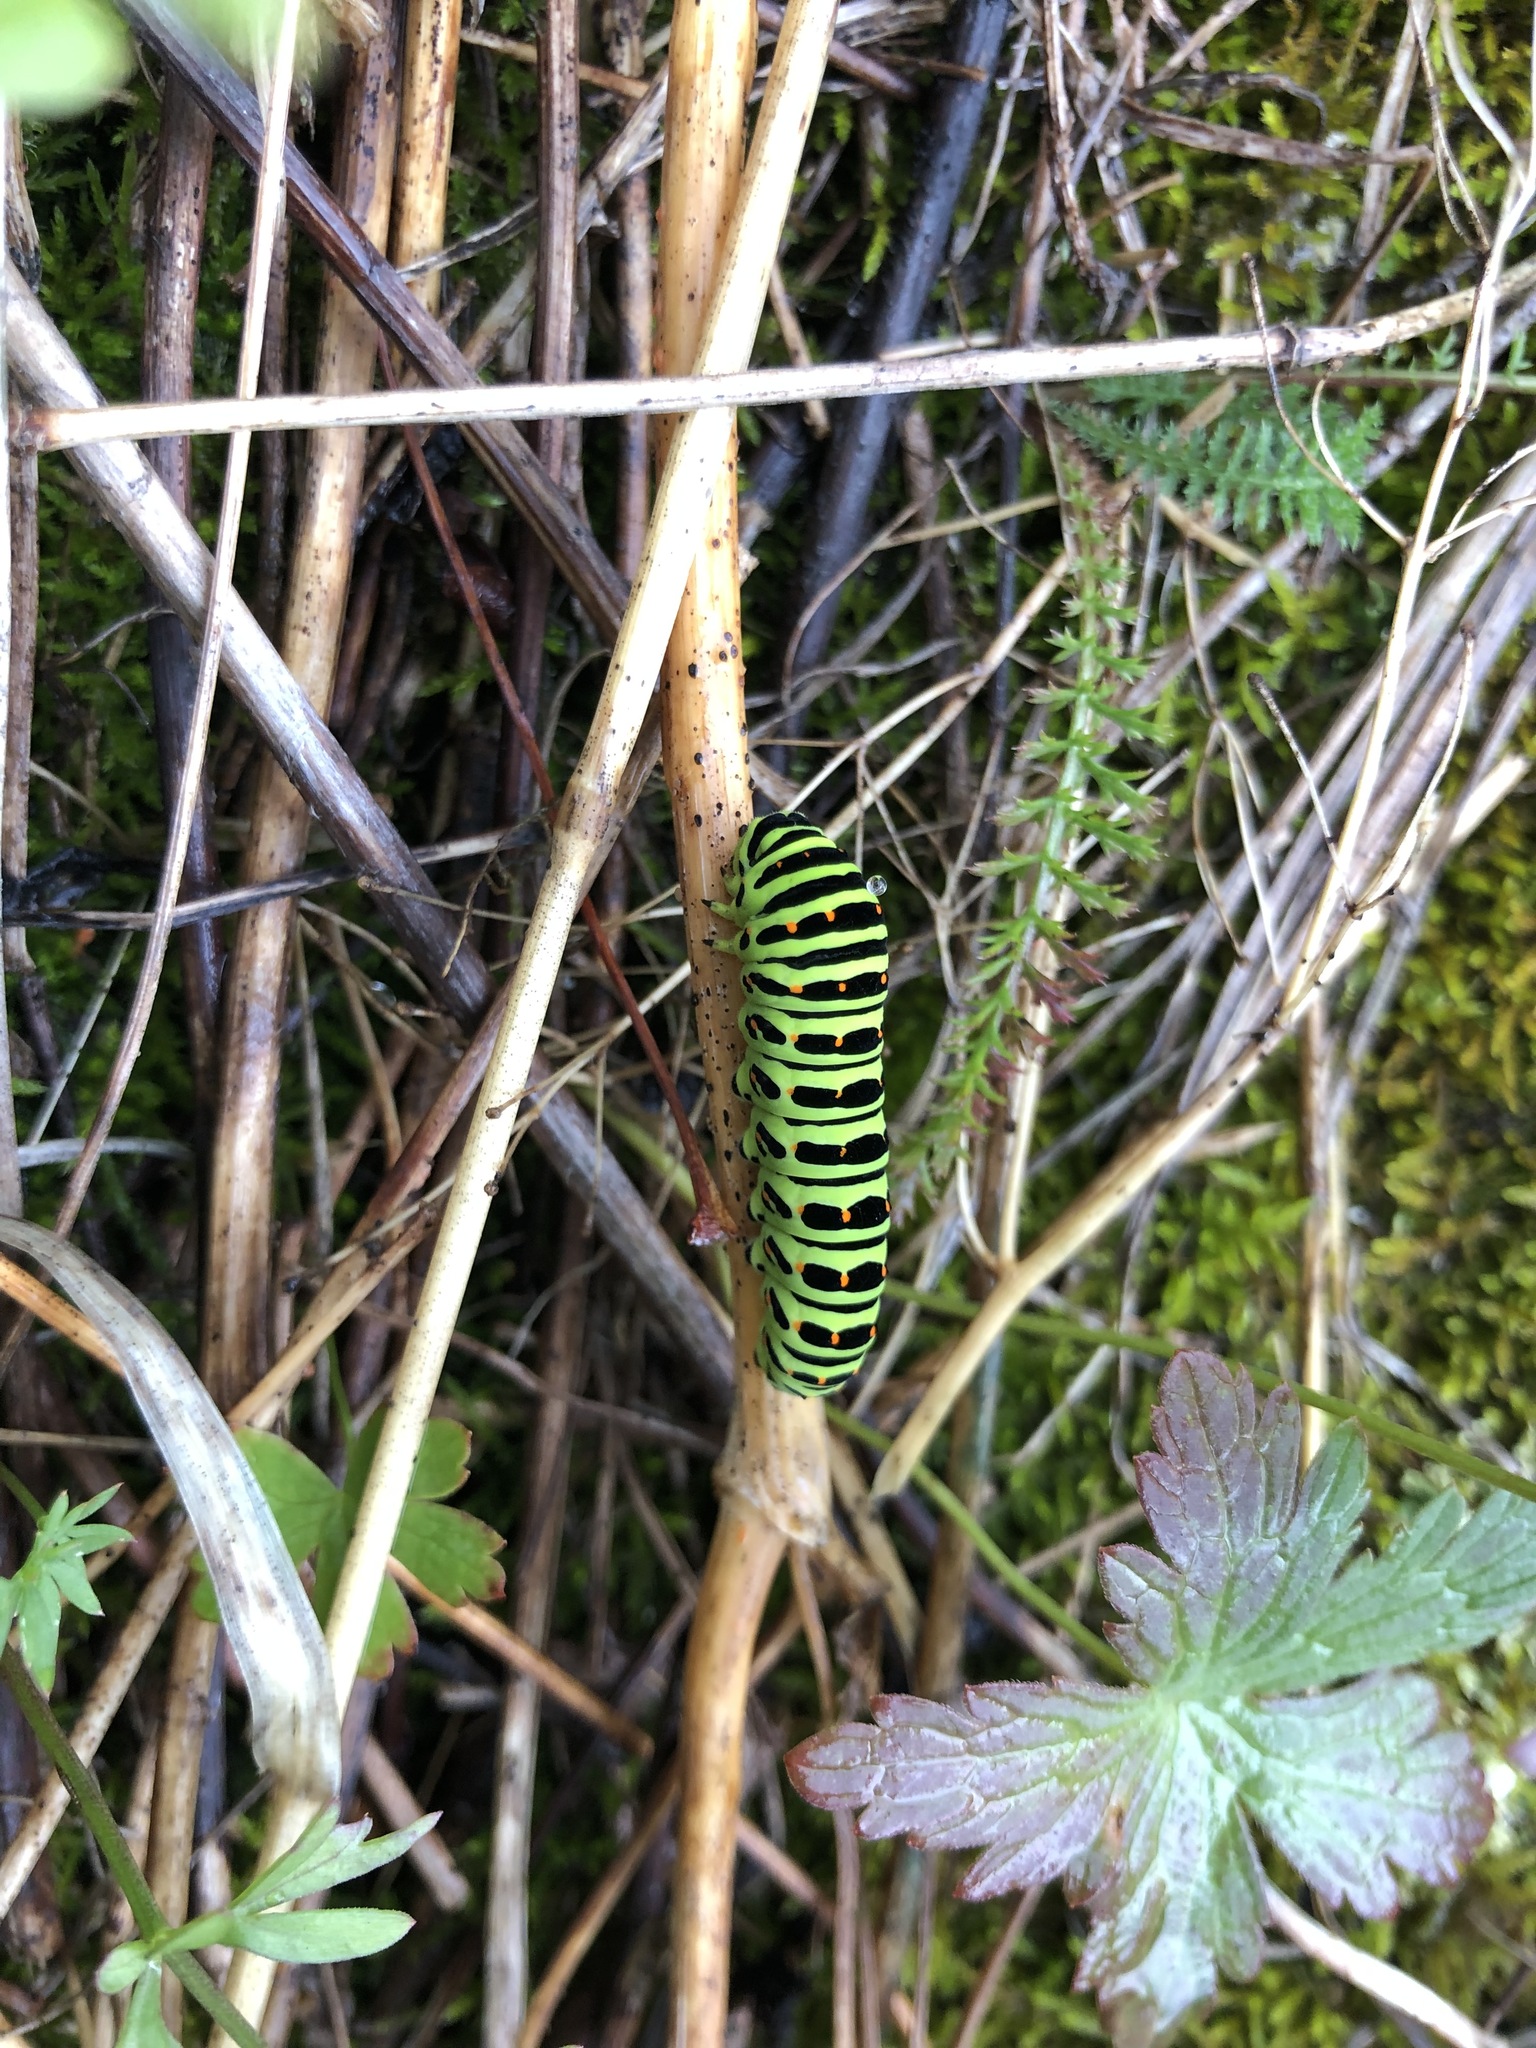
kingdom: Animalia
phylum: Arthropoda
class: Insecta
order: Lepidoptera
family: Papilionidae
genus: Papilio
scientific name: Papilio machaon
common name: Swallowtail
